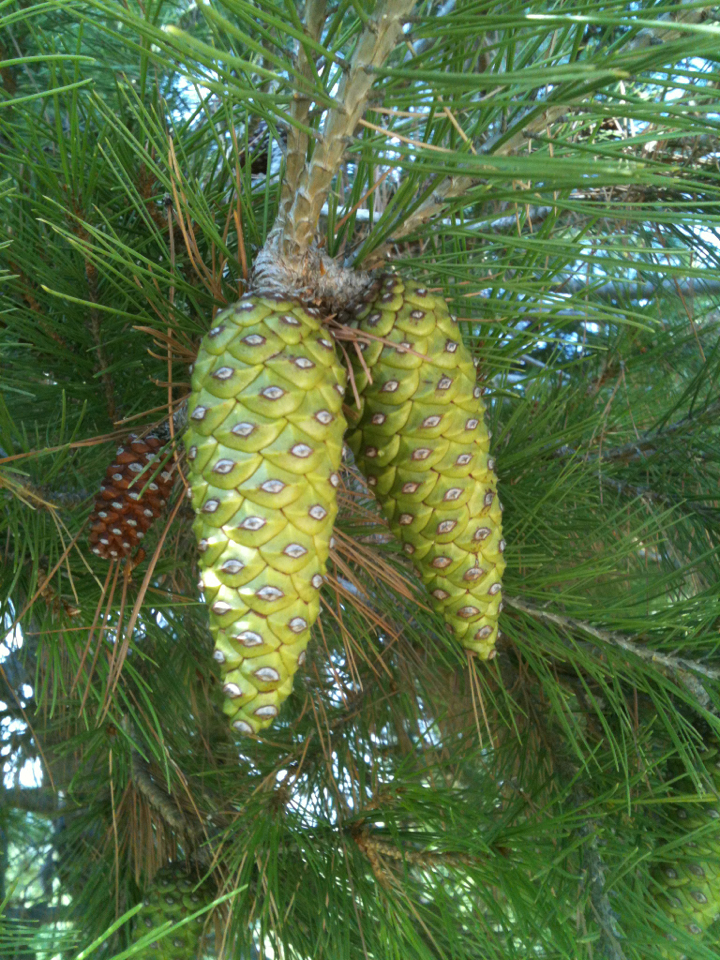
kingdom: Plantae
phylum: Tracheophyta
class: Pinopsida
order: Pinales
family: Pinaceae
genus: Pinus
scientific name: Pinus halepensis
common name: Aleppo pine
